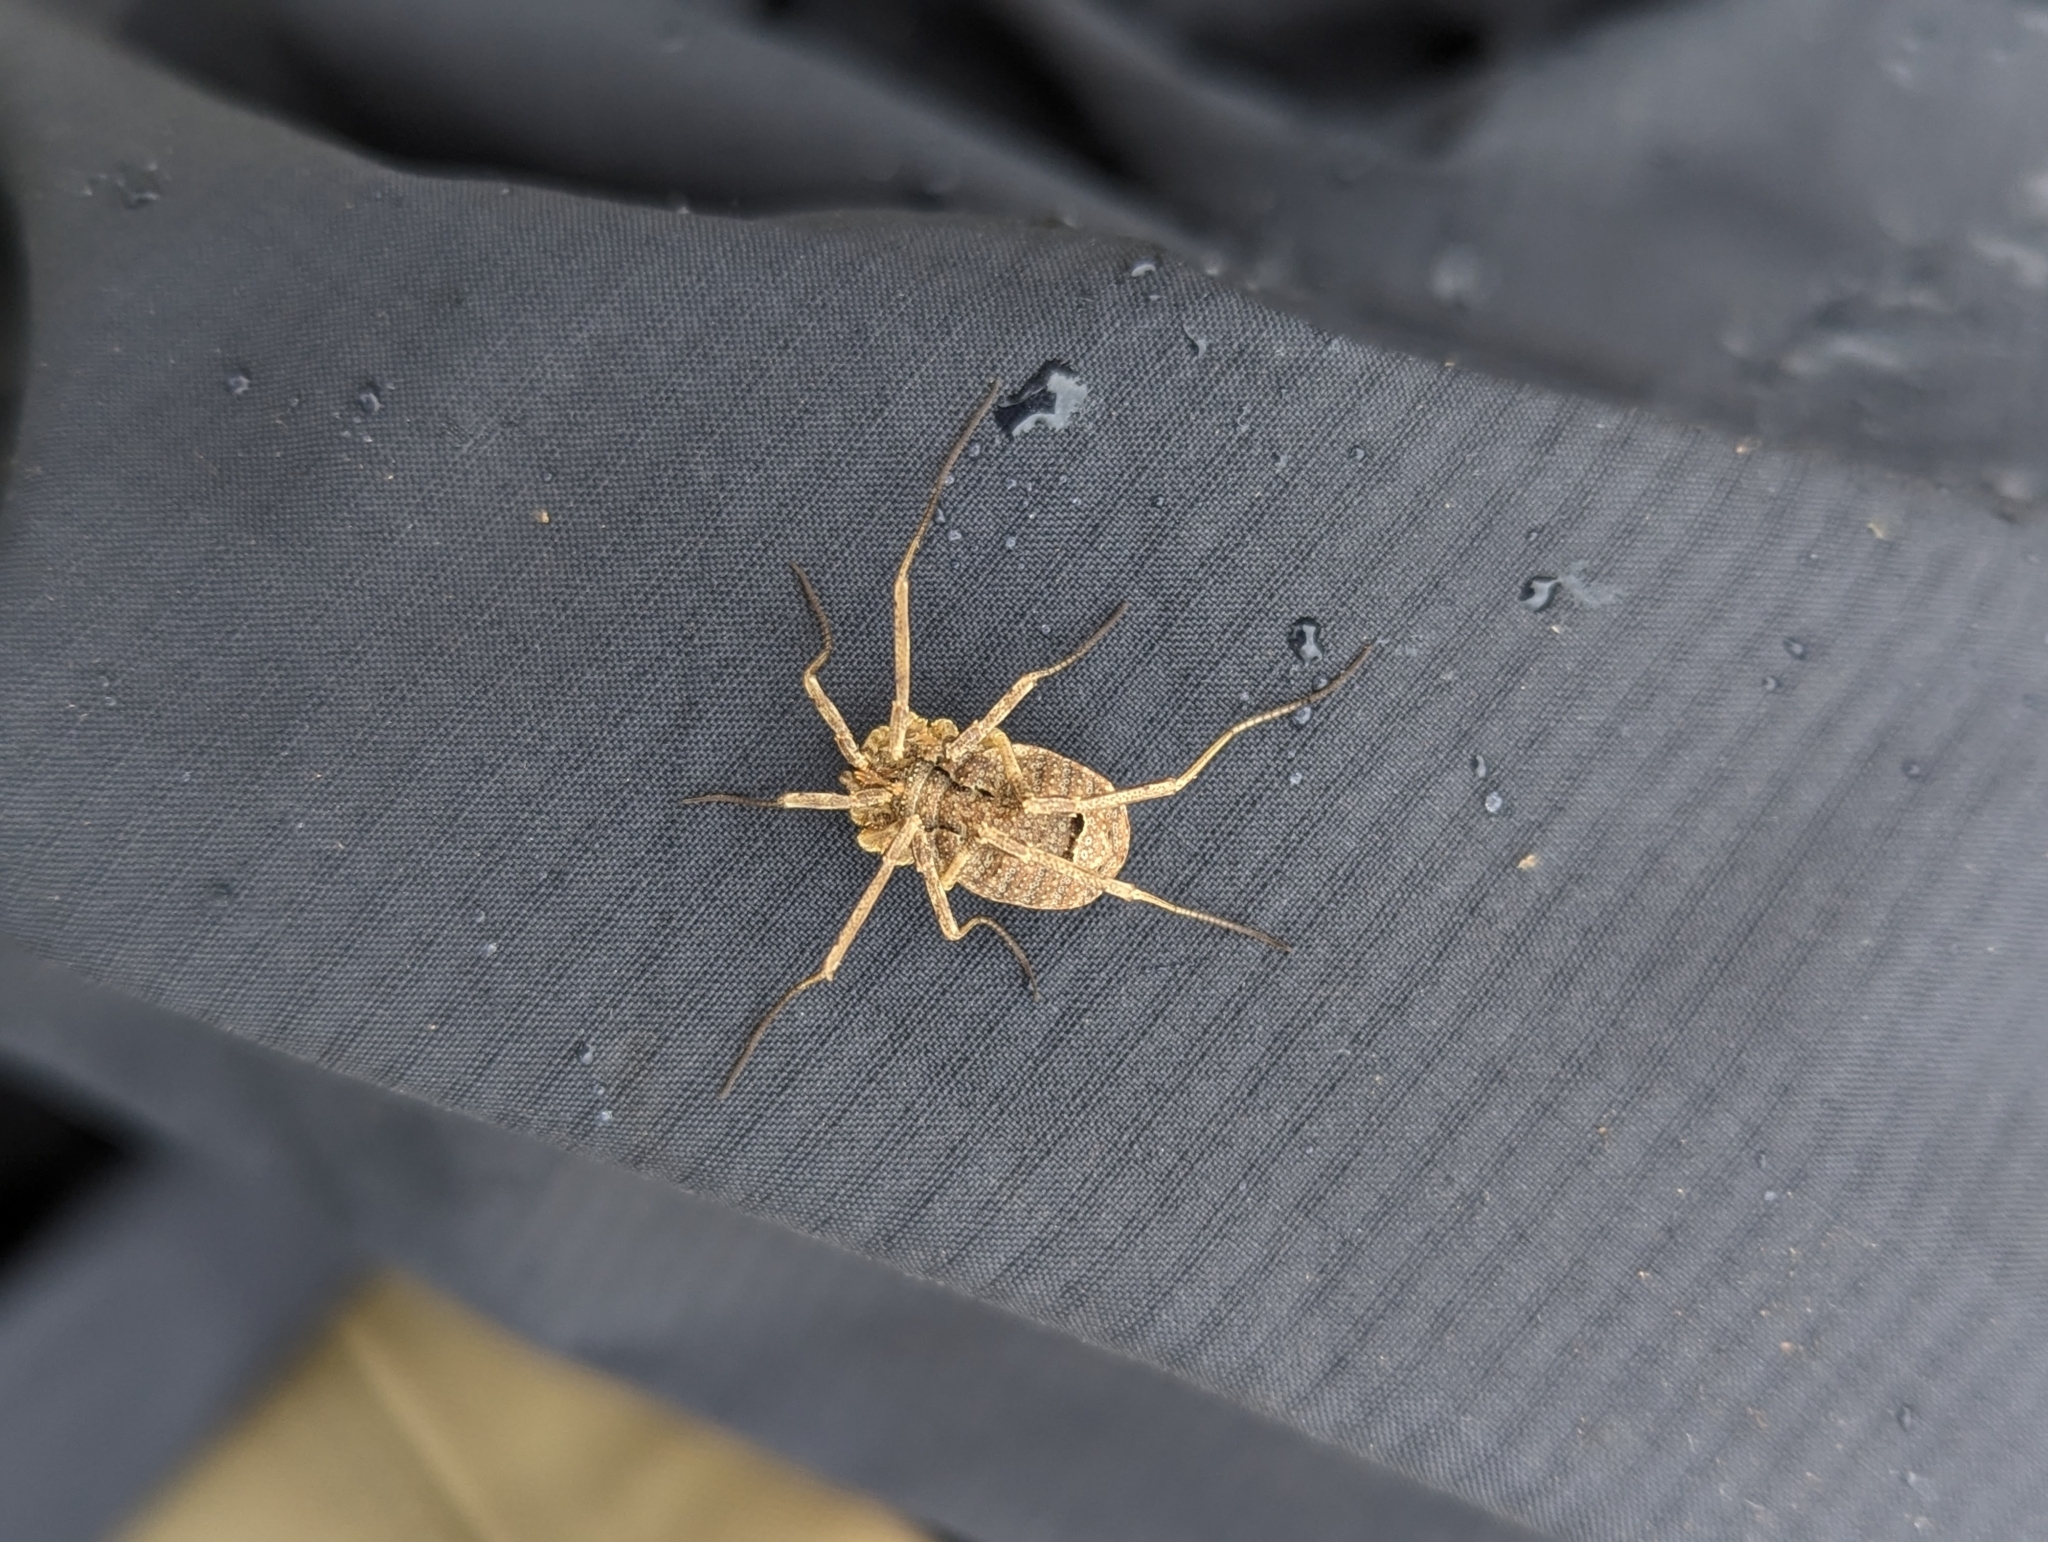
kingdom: Animalia
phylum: Arthropoda
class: Arachnida
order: Opiliones
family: Phalangiidae
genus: Odiellus
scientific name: Odiellus spinosus
